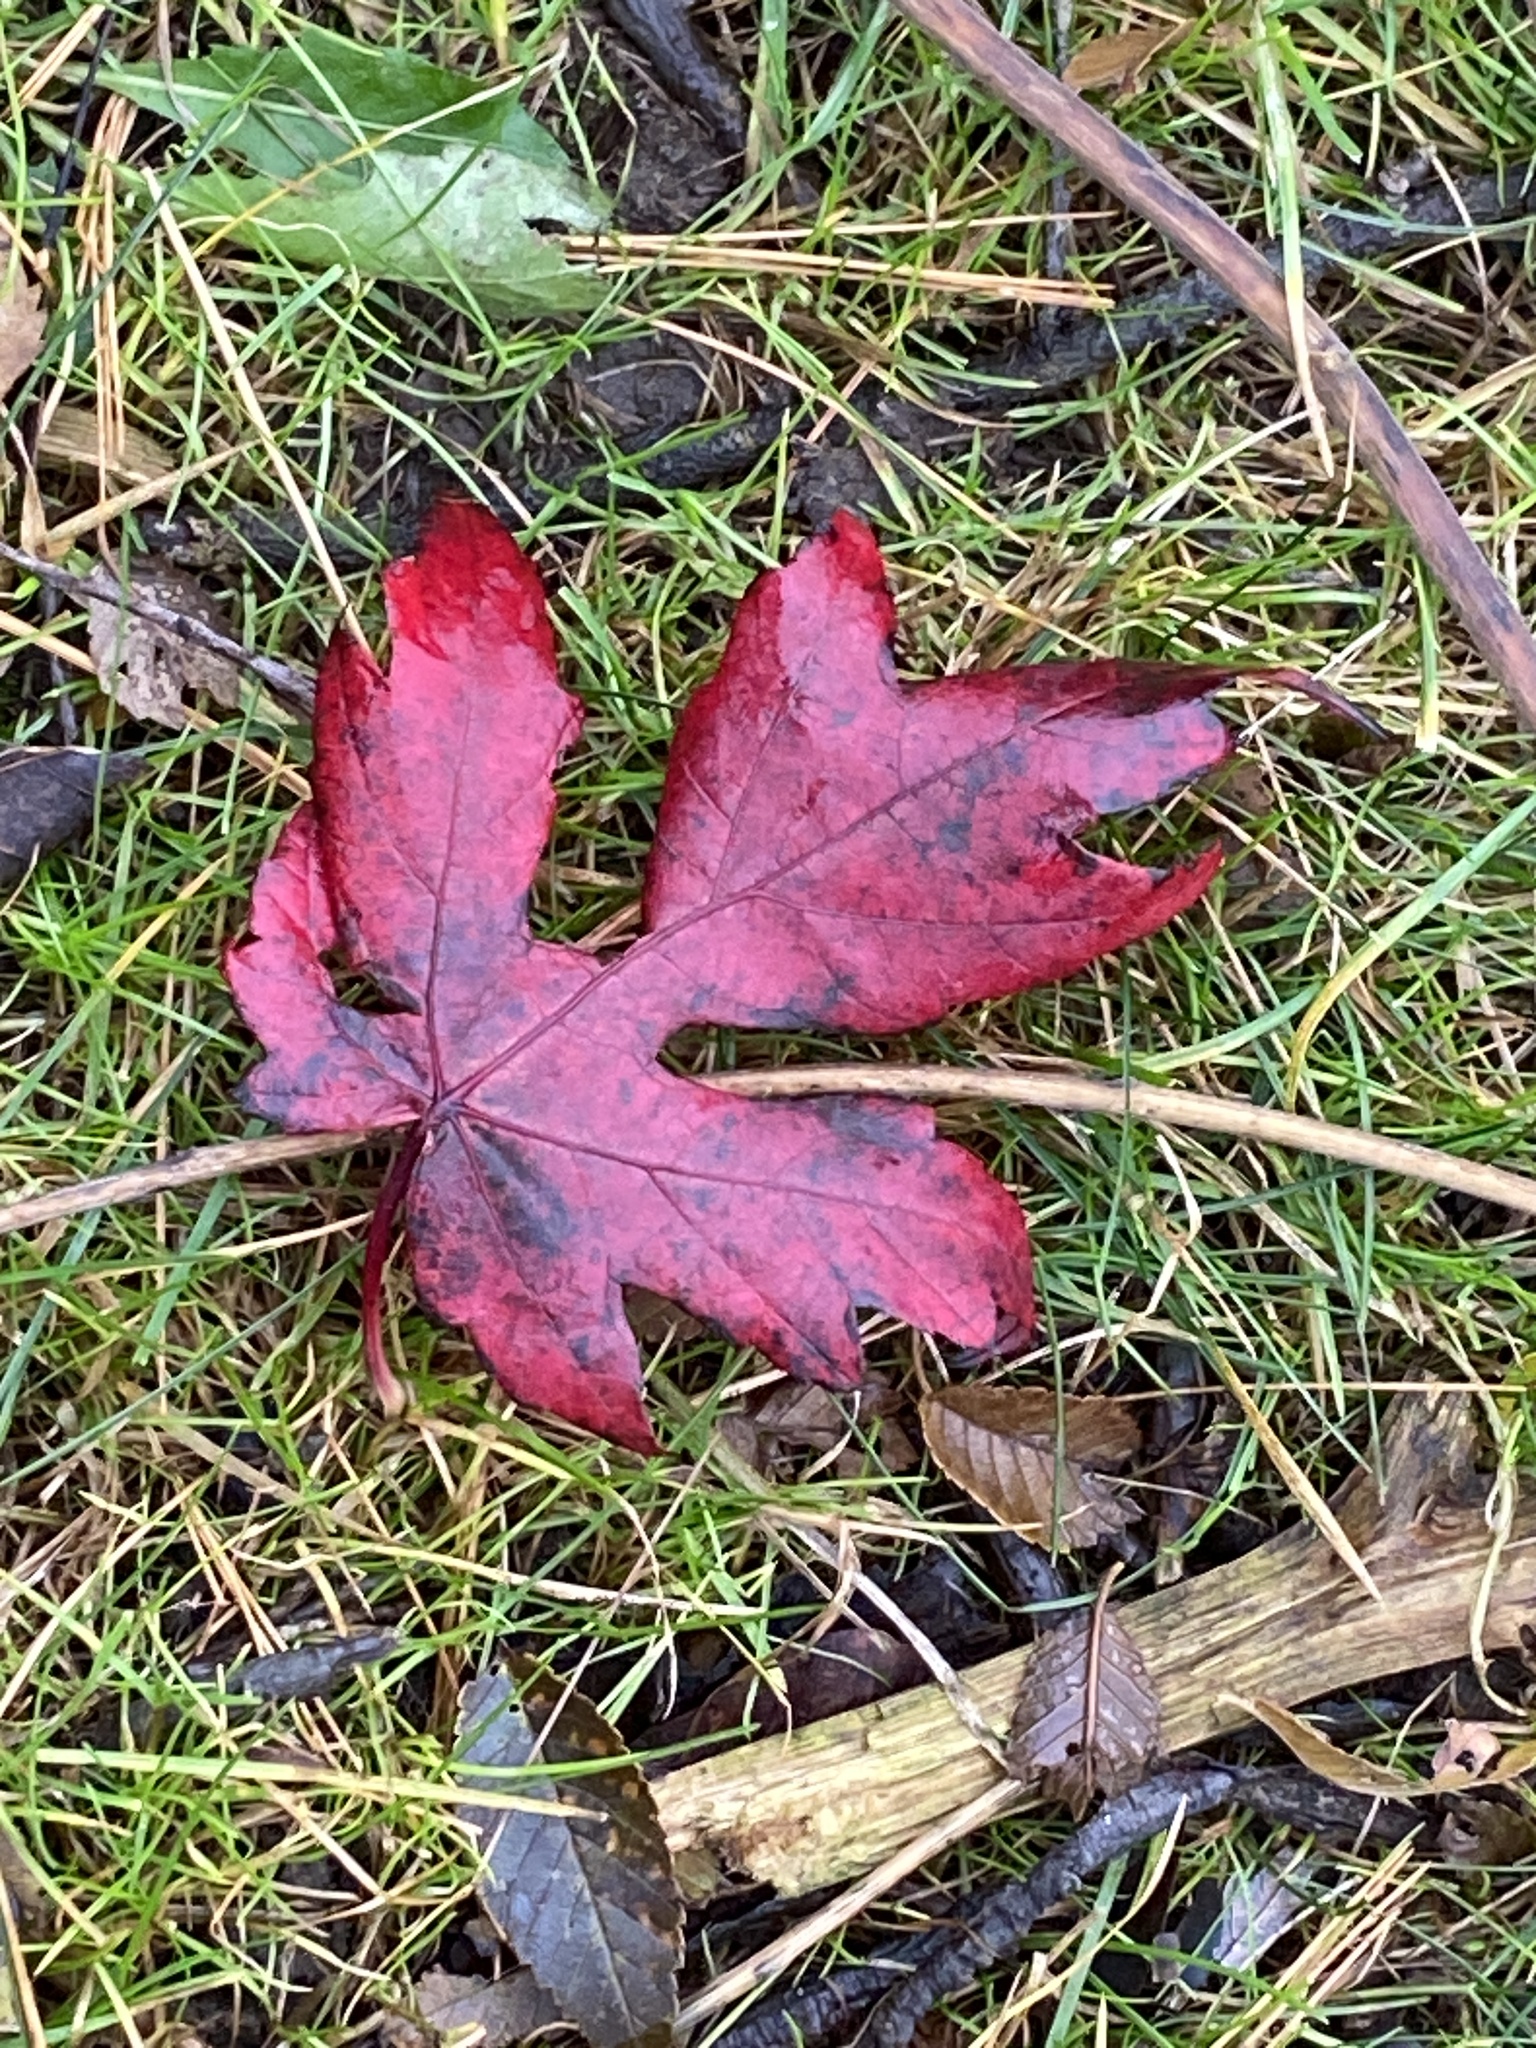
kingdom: Plantae
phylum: Tracheophyta
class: Magnoliopsida
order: Sapindales
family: Sapindaceae
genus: Acer
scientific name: Acer saccharinum
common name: Silver maple
